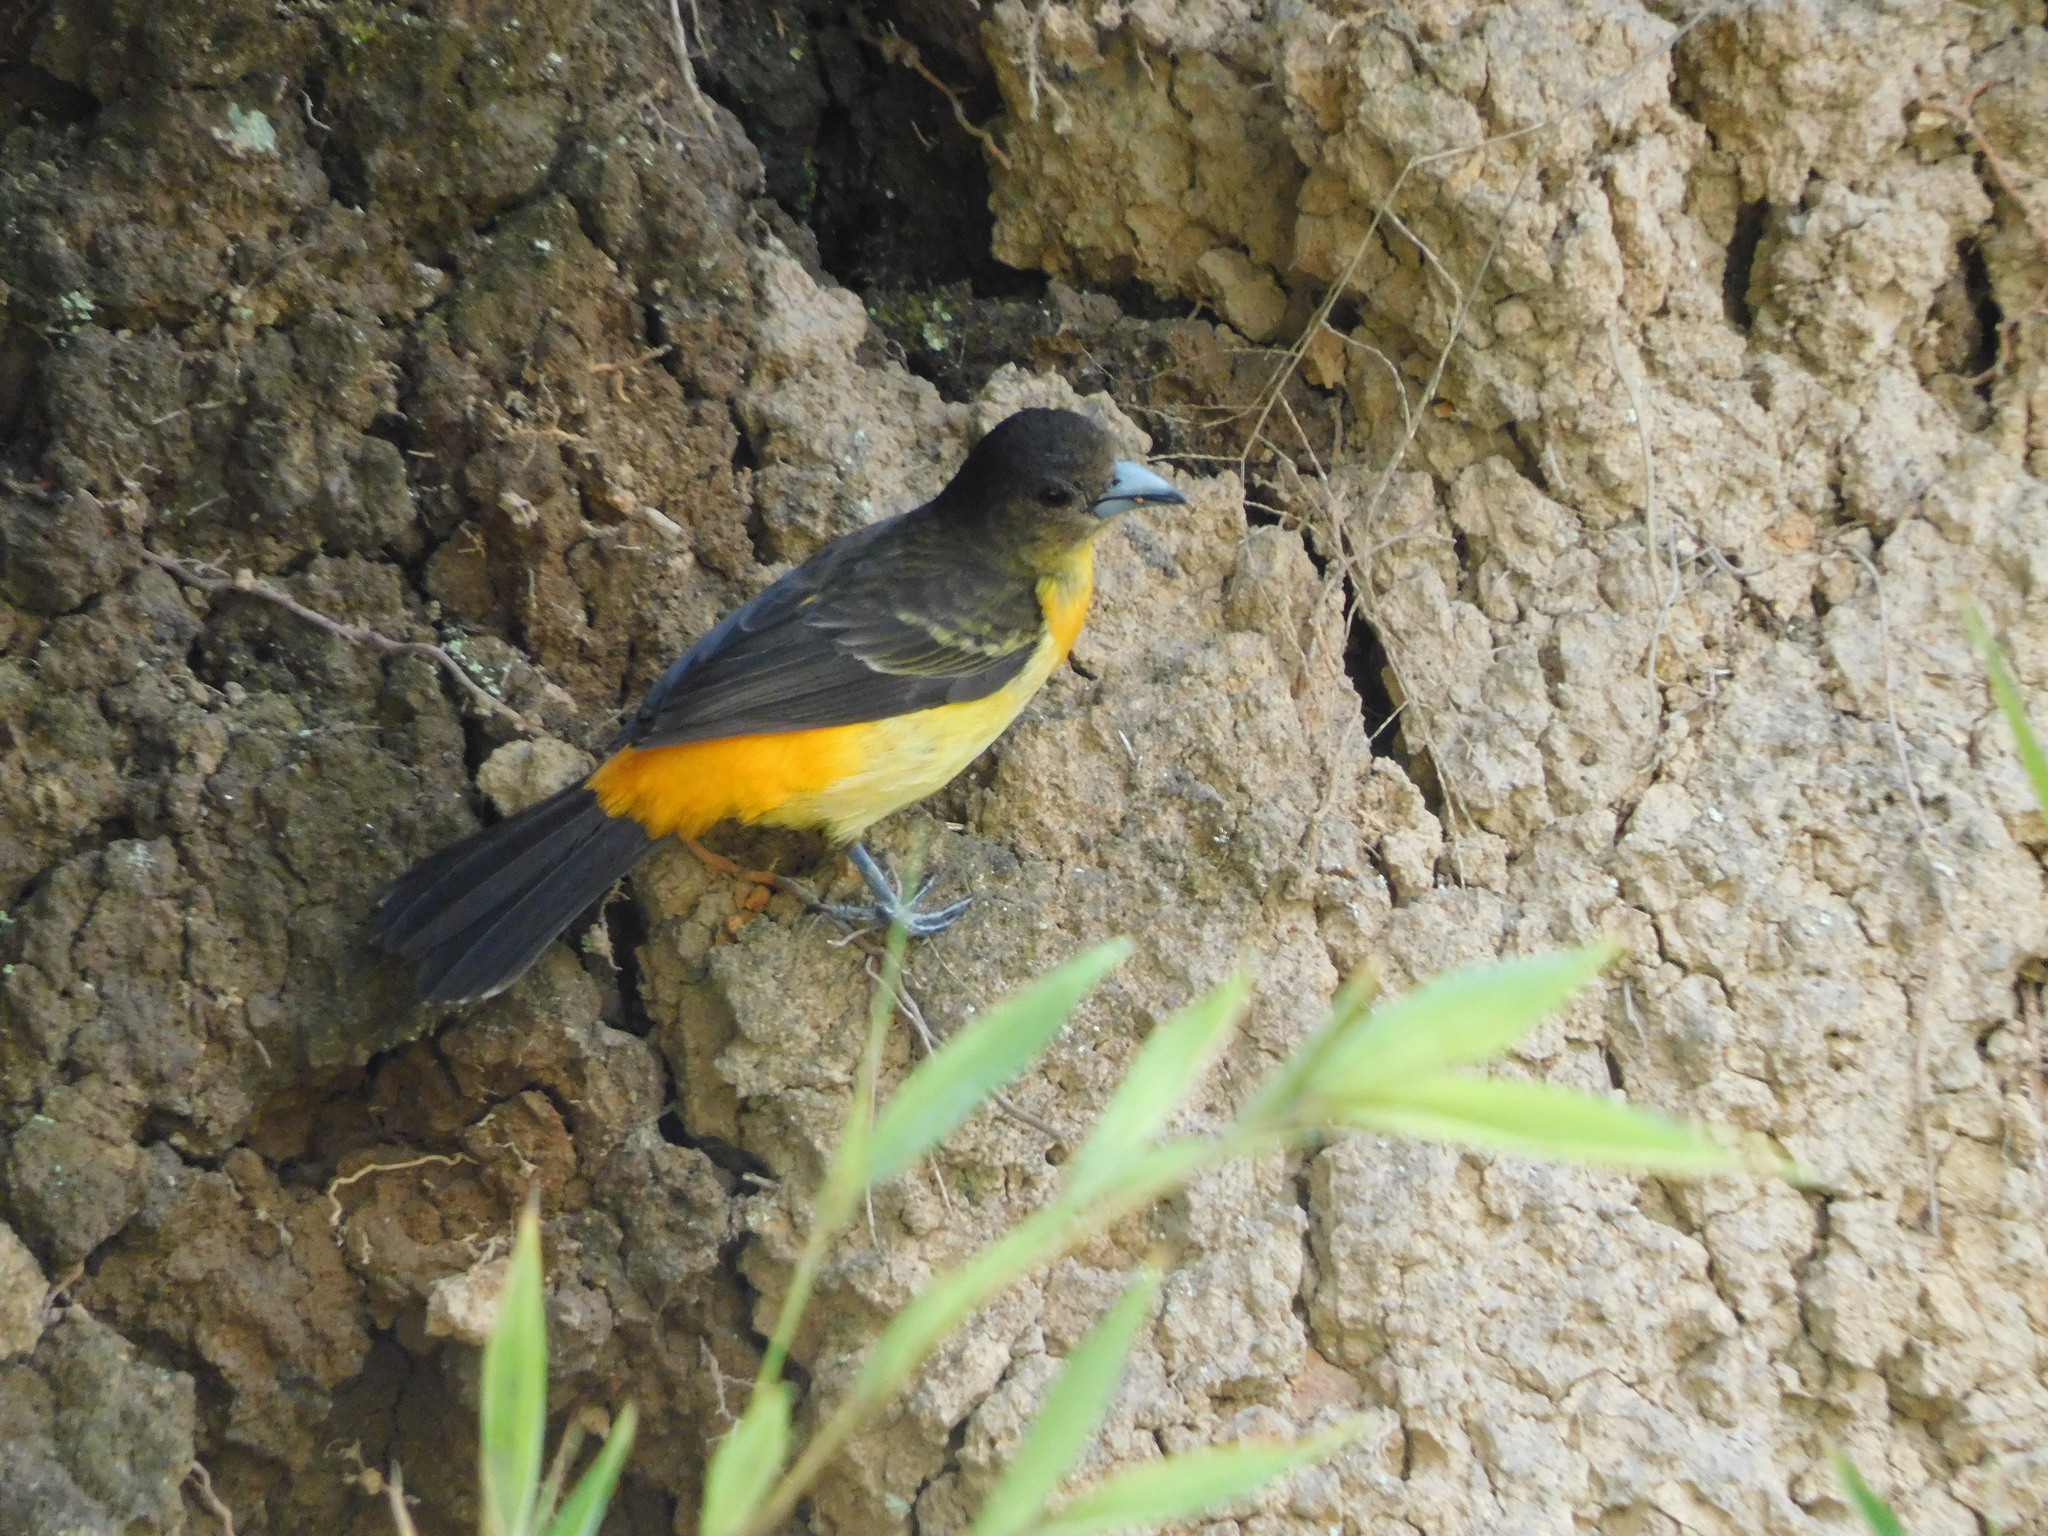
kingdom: Animalia
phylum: Chordata
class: Aves
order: Passeriformes
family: Thraupidae
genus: Ramphocelus
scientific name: Ramphocelus flammigerus
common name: Flame-rumped tanager
